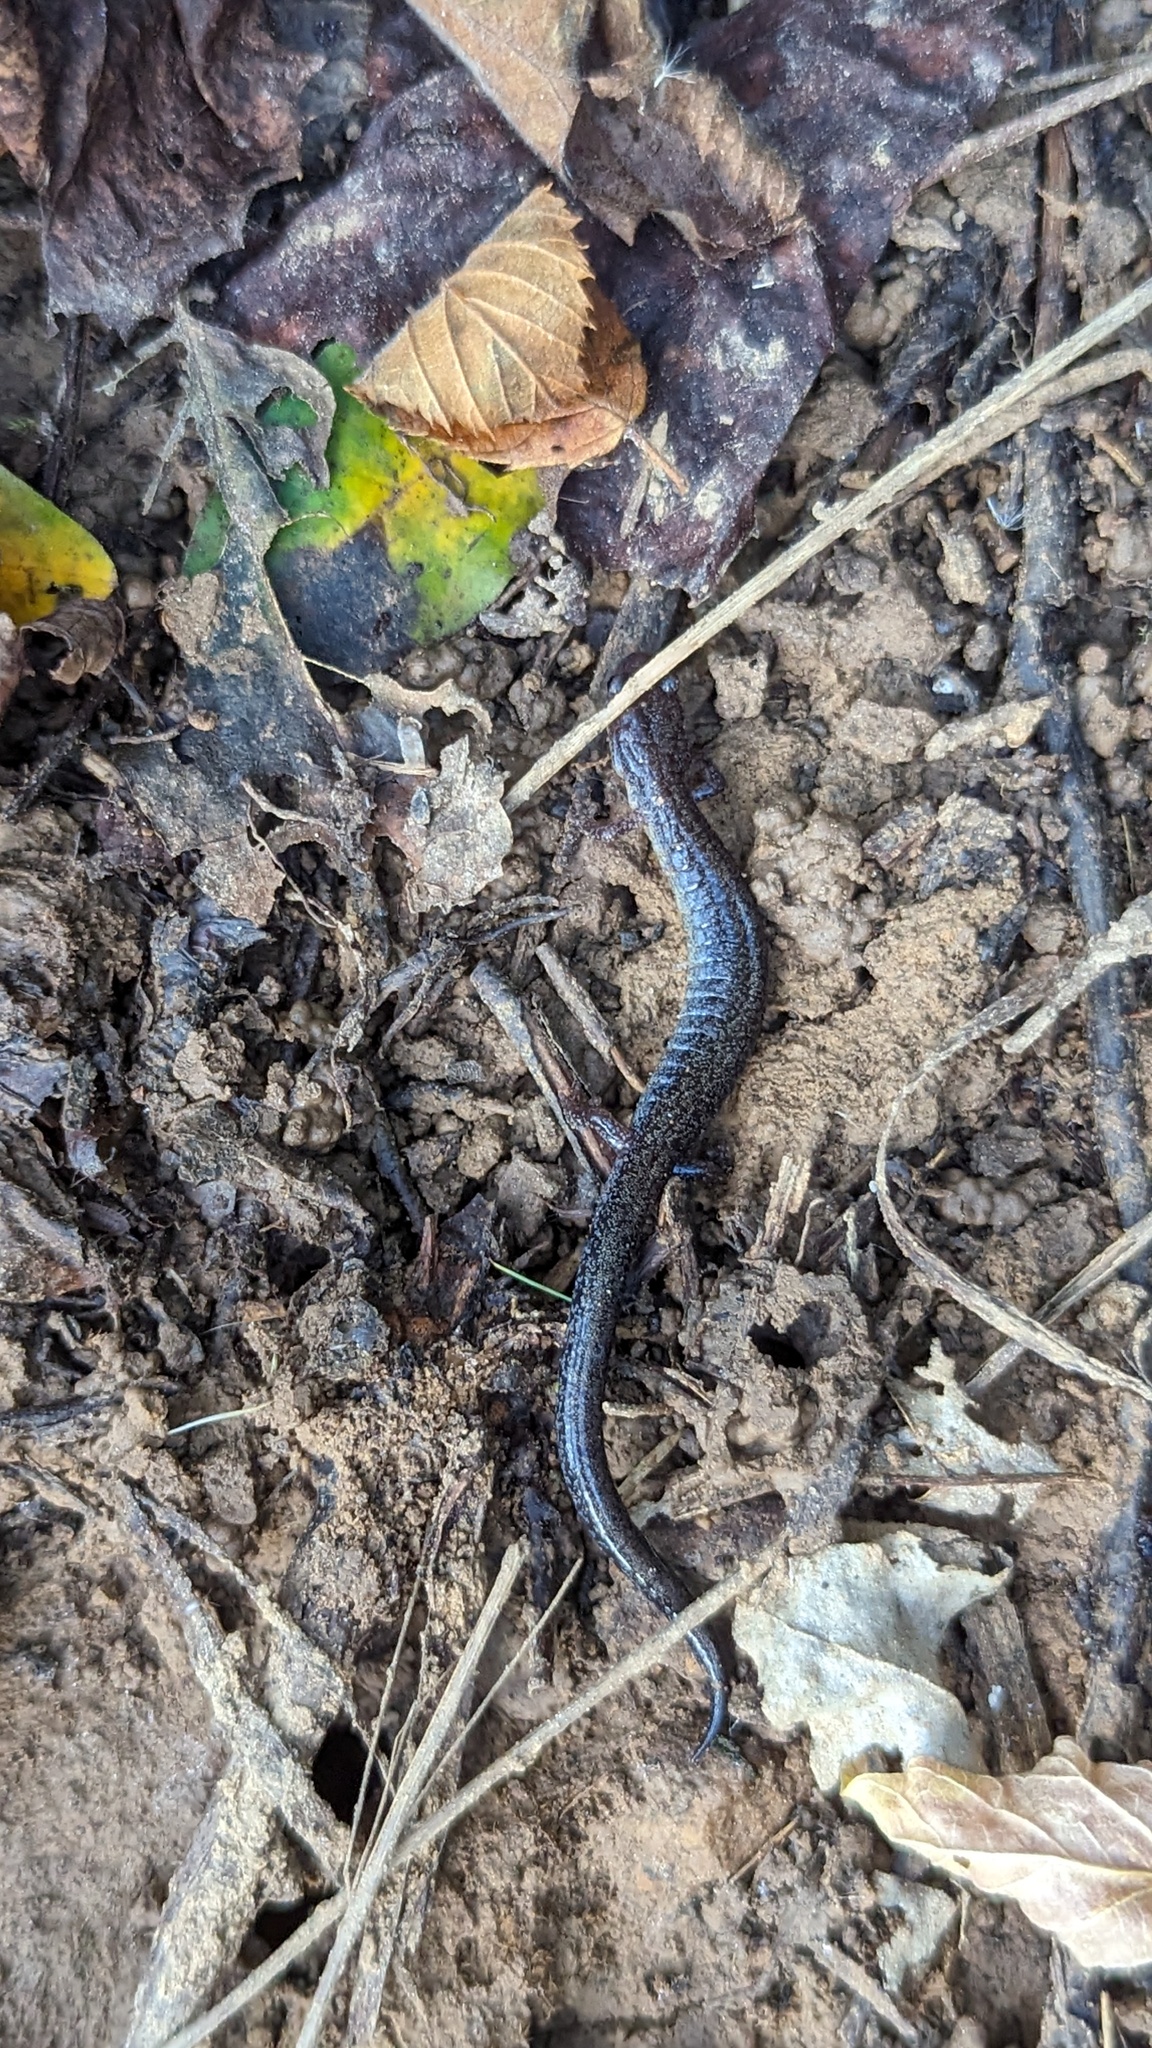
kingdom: Animalia
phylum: Chordata
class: Amphibia
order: Caudata
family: Plethodontidae
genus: Plethodon
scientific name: Plethodon cinereus
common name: Redback salamander
